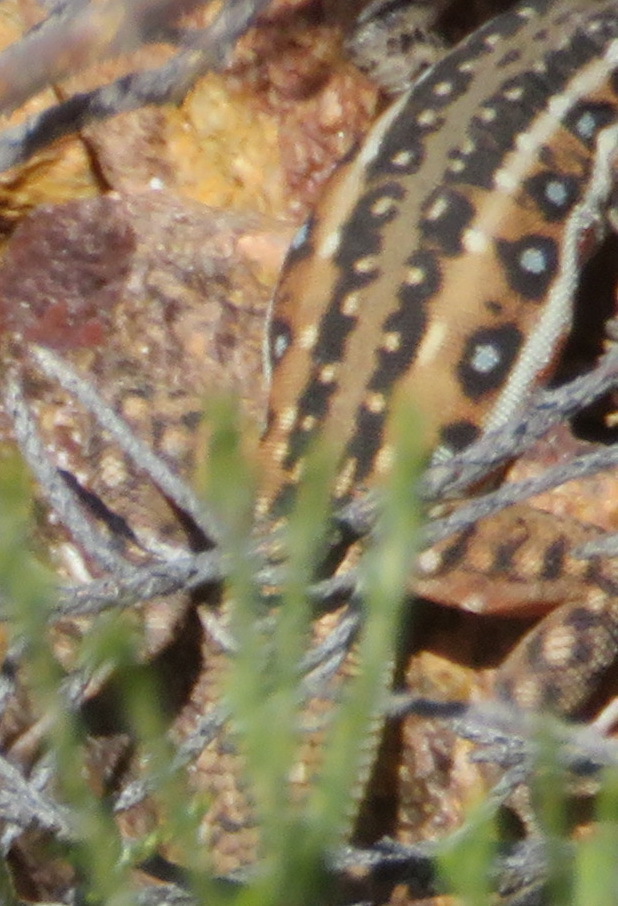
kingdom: Animalia
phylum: Chordata
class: Squamata
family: Lacertidae
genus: Pedioplanis
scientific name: Pedioplanis lineoocellata
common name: Spotted sand lizard
